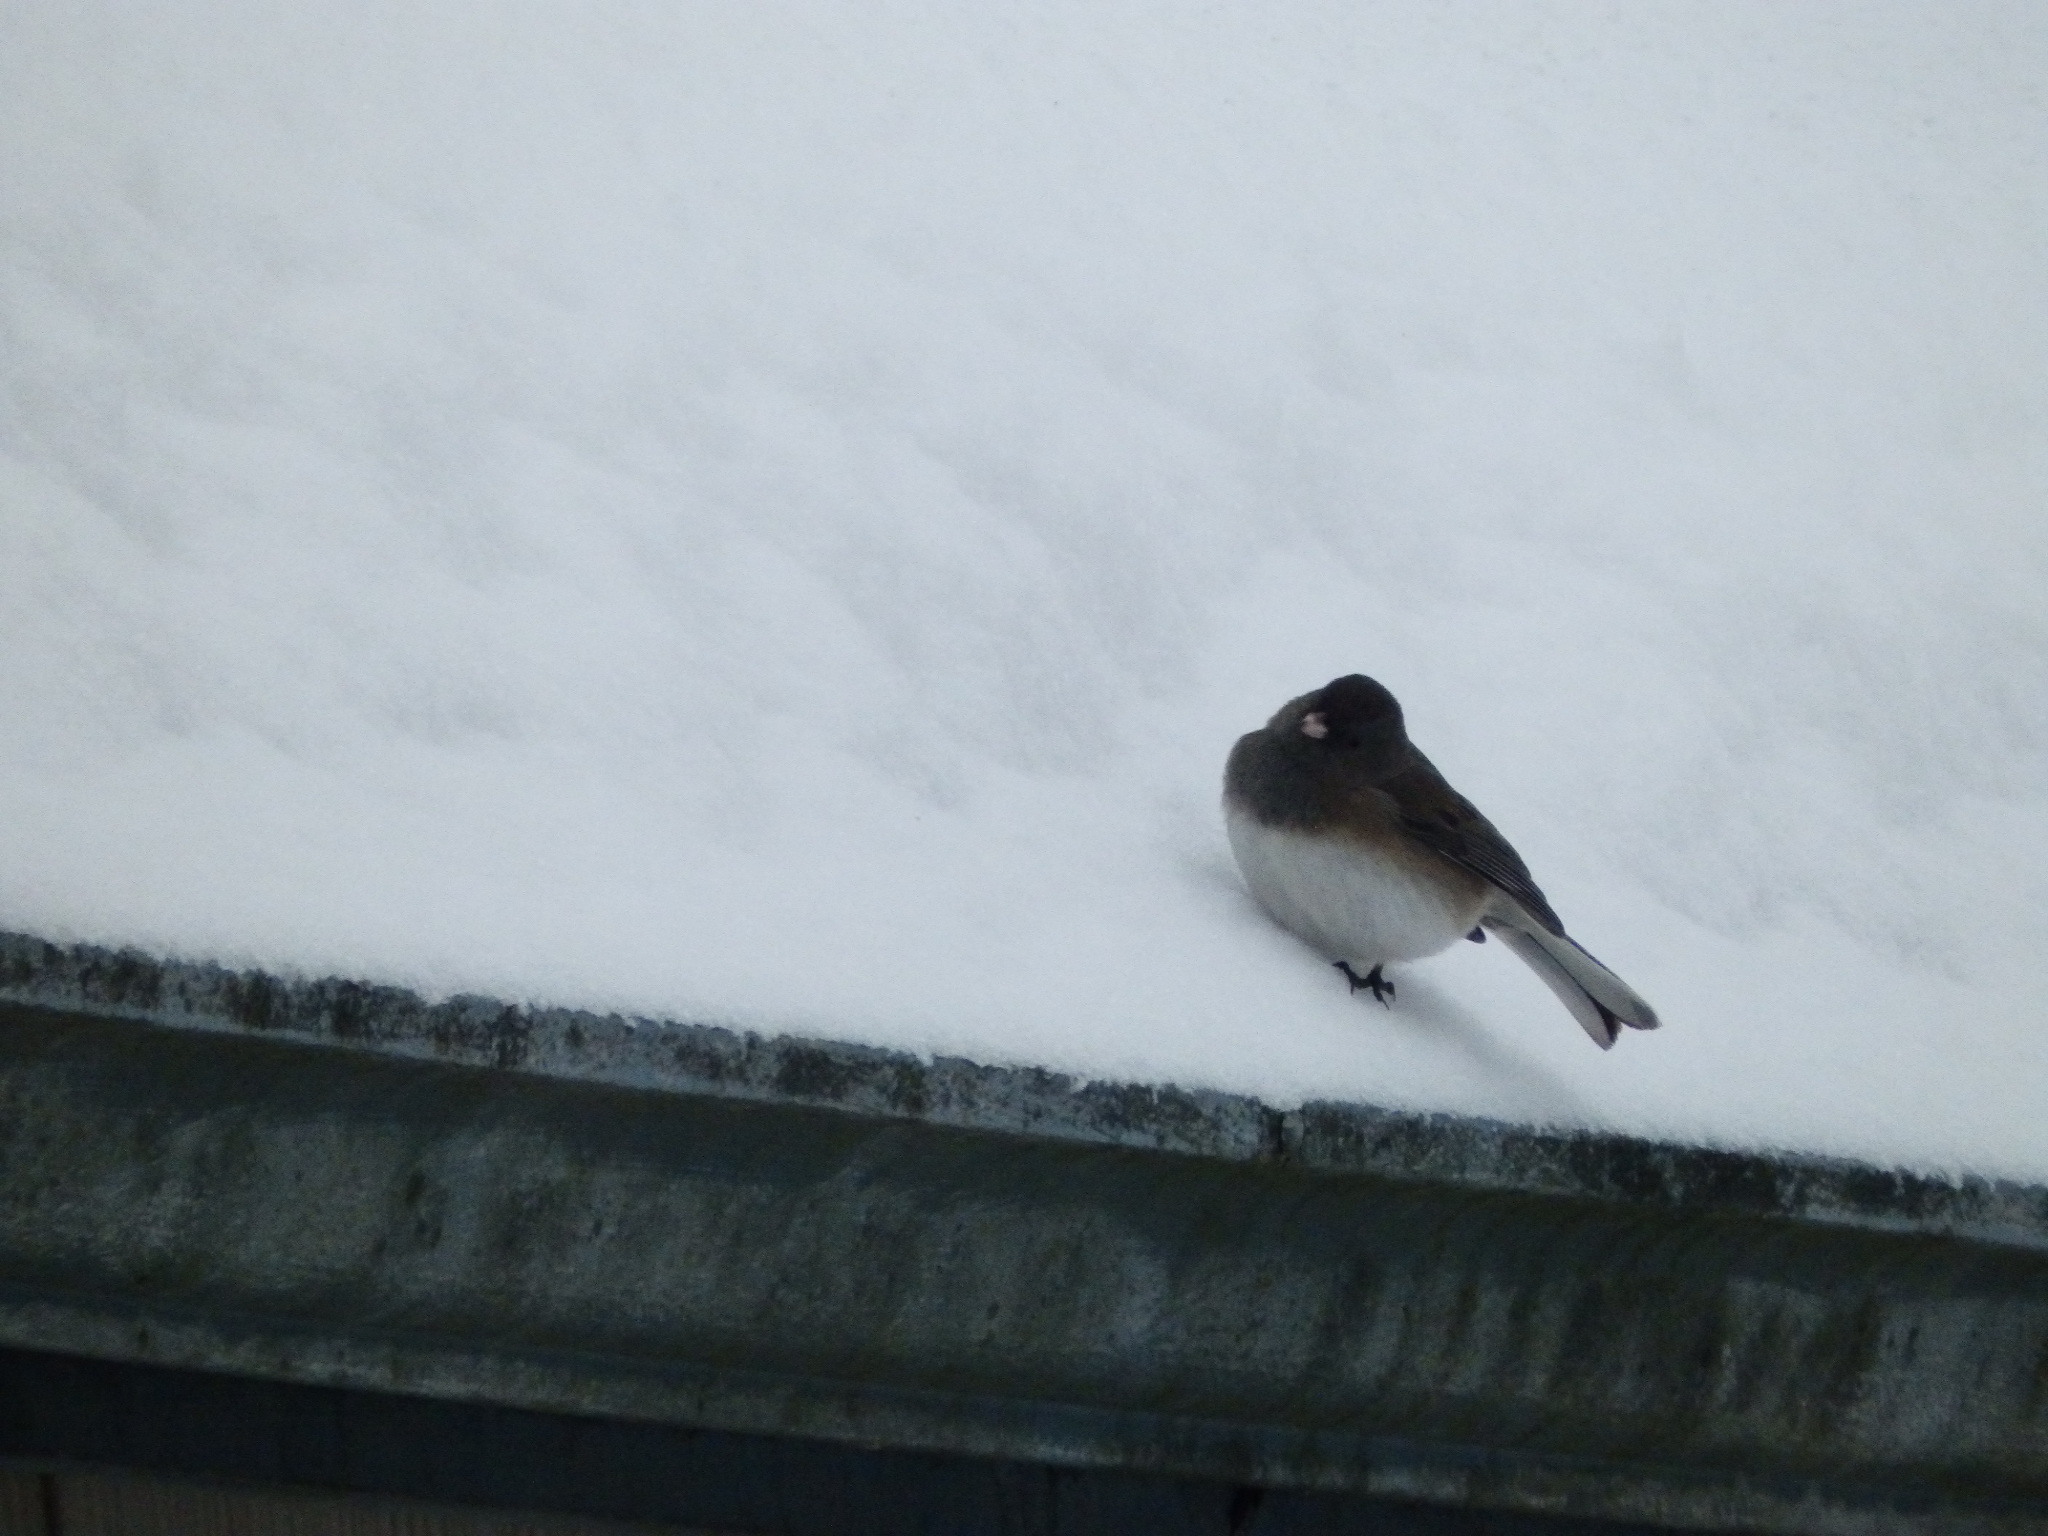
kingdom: Animalia
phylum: Chordata
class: Aves
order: Passeriformes
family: Passerellidae
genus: Junco
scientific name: Junco hyemalis
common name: Dark-eyed junco
